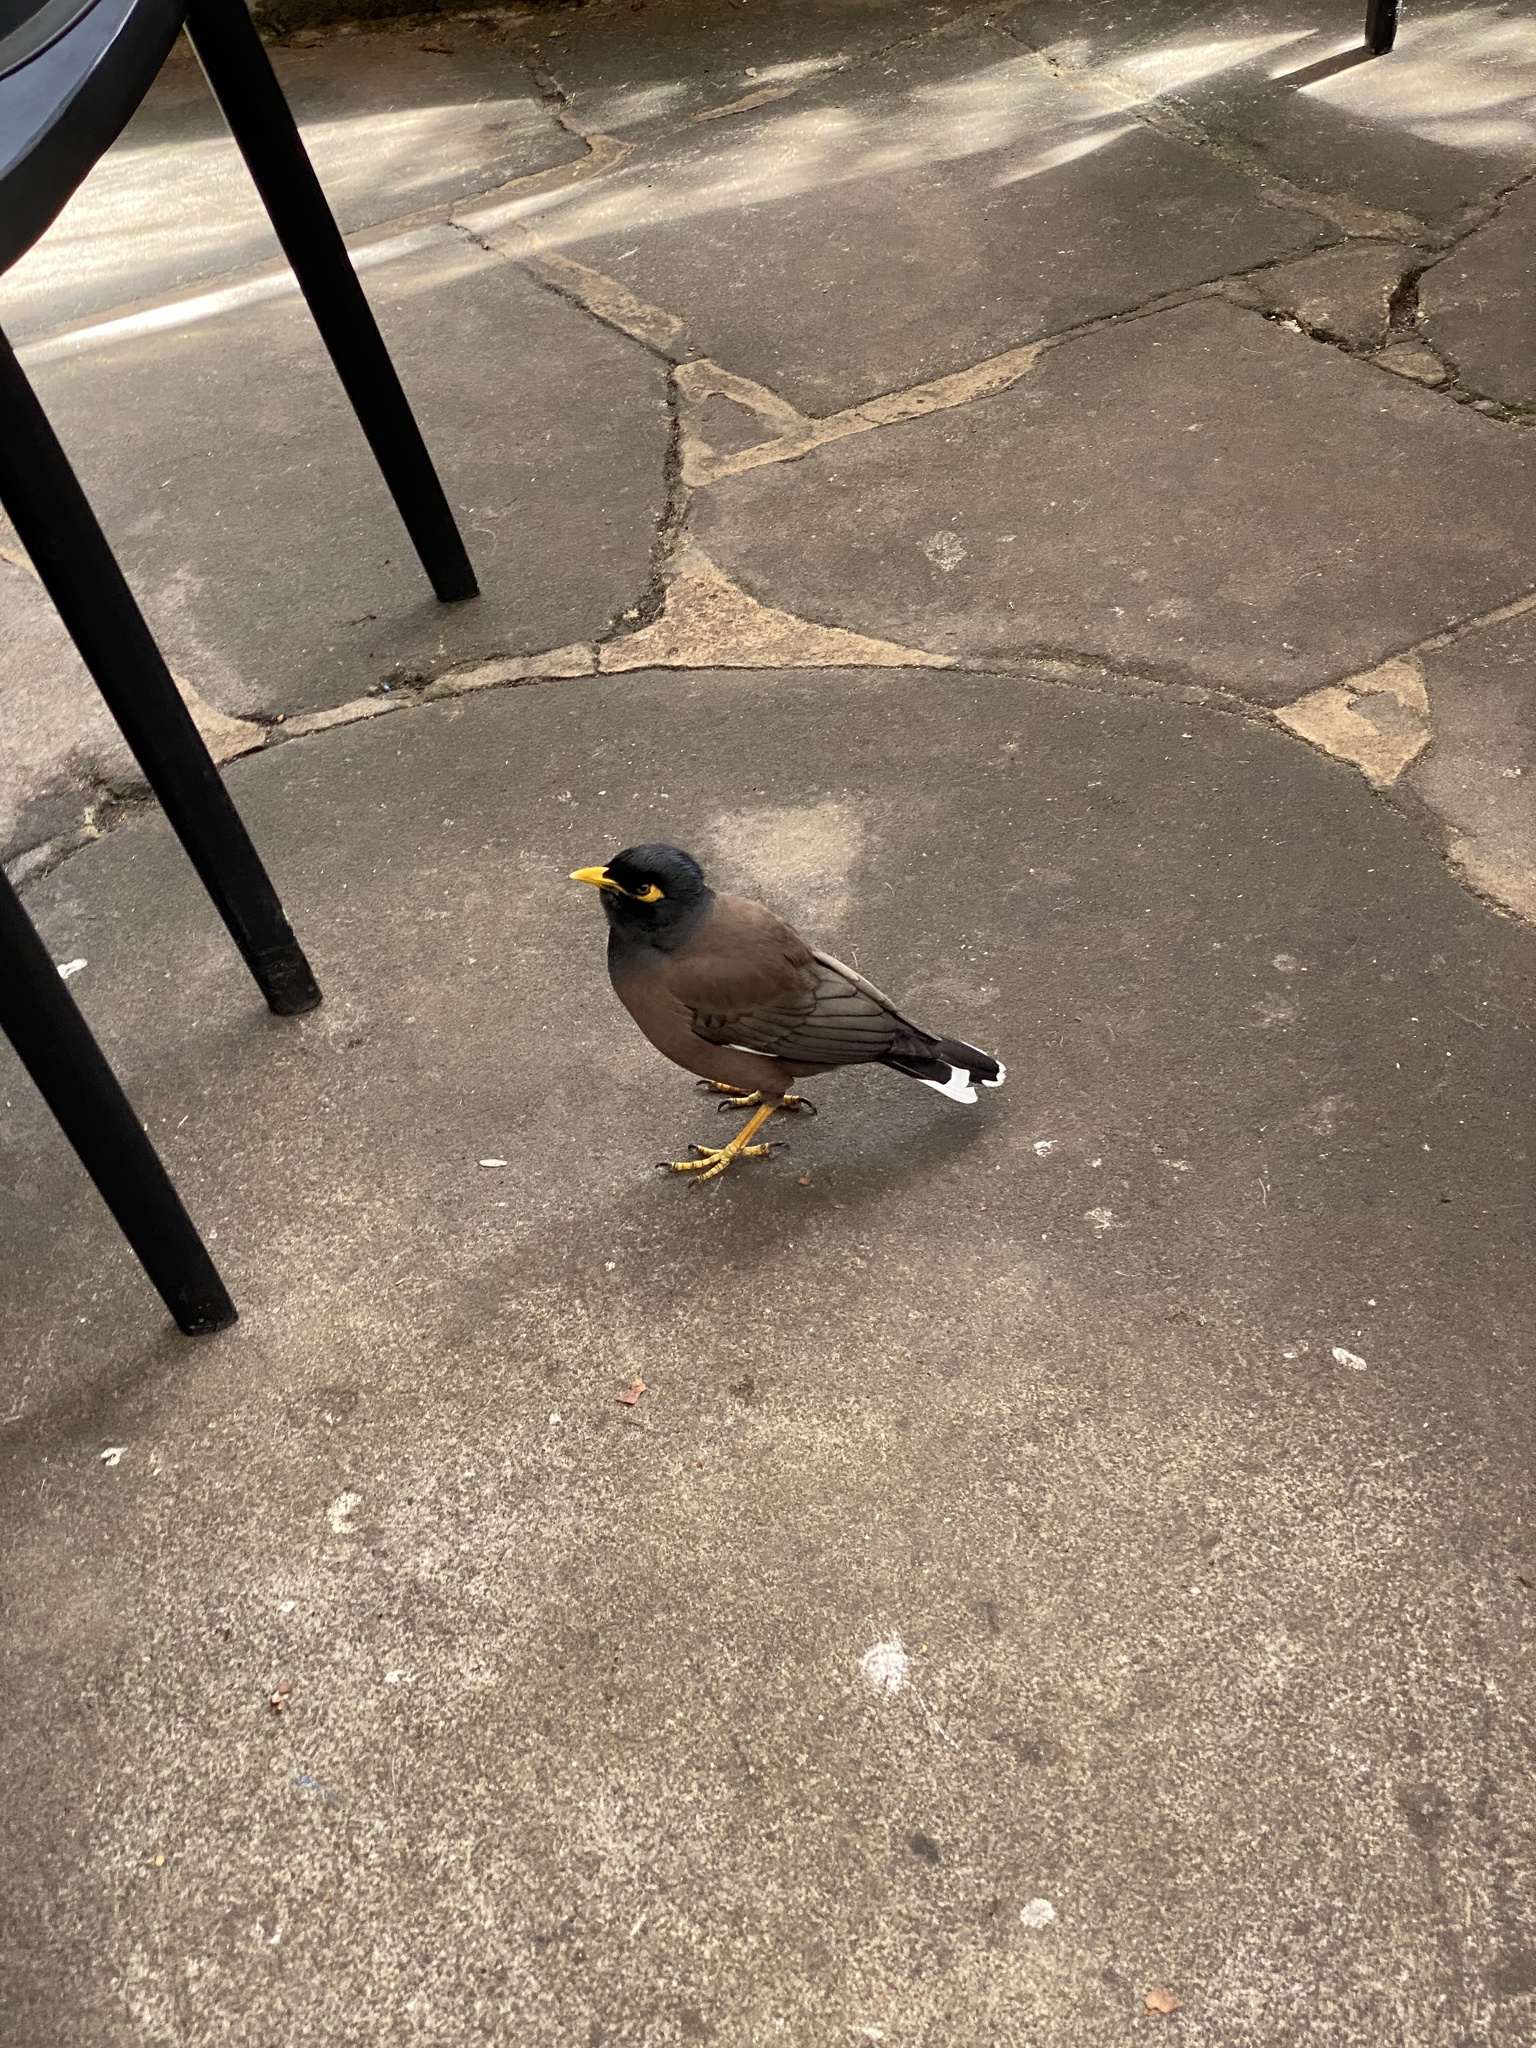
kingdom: Animalia
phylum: Chordata
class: Aves
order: Passeriformes
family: Sturnidae
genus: Acridotheres
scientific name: Acridotheres tristis
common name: Common myna
